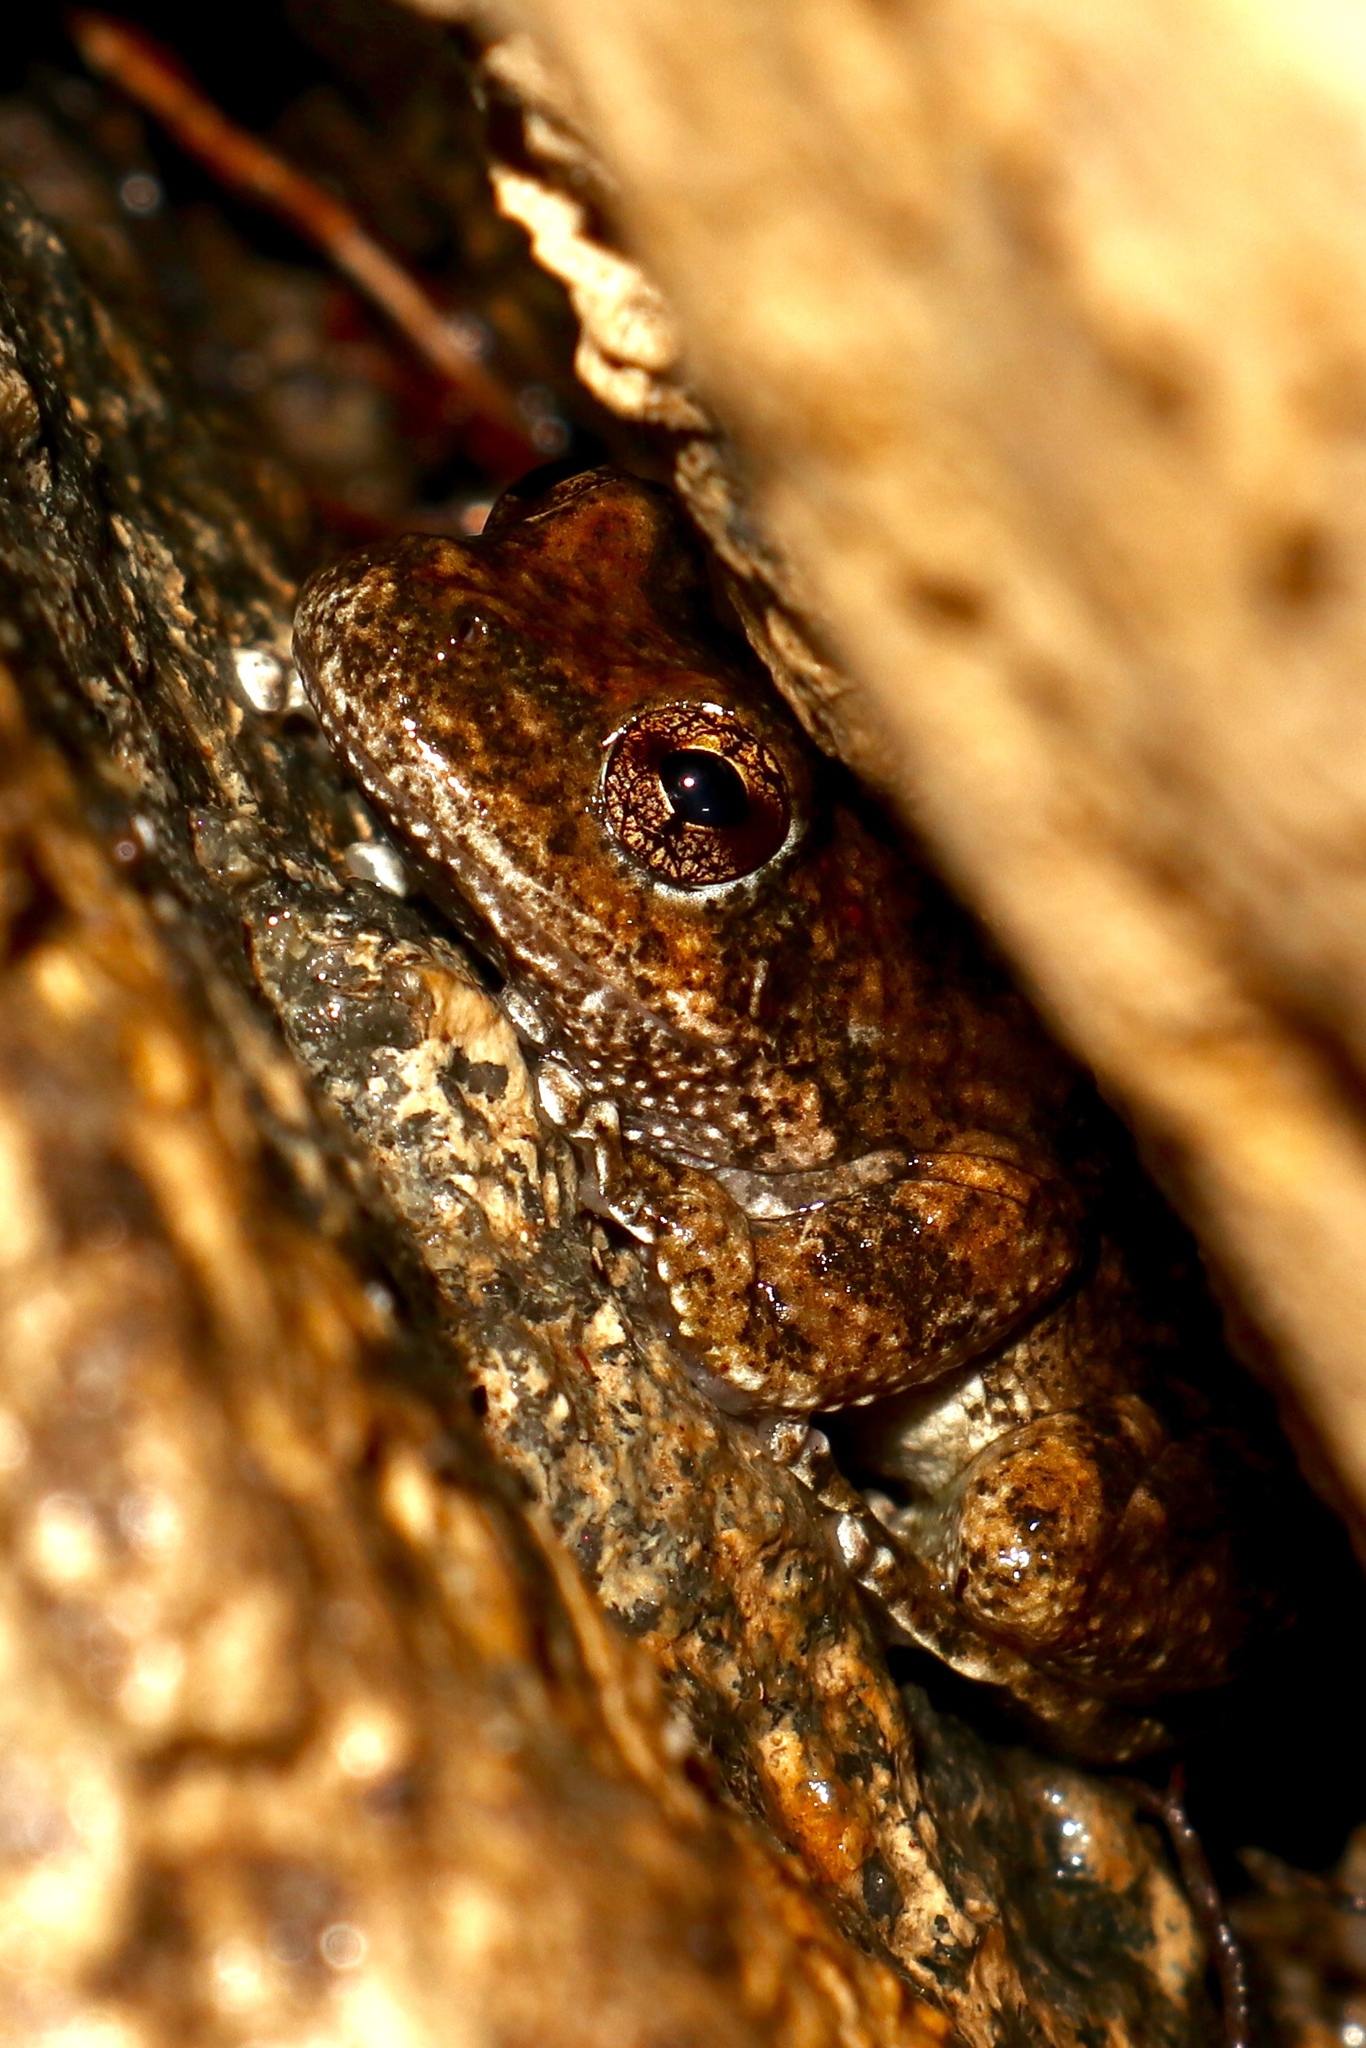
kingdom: Animalia
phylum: Chordata
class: Amphibia
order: Anura
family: Hylidae
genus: Pseudacris
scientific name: Pseudacris cadaverina
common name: California chorus frog
